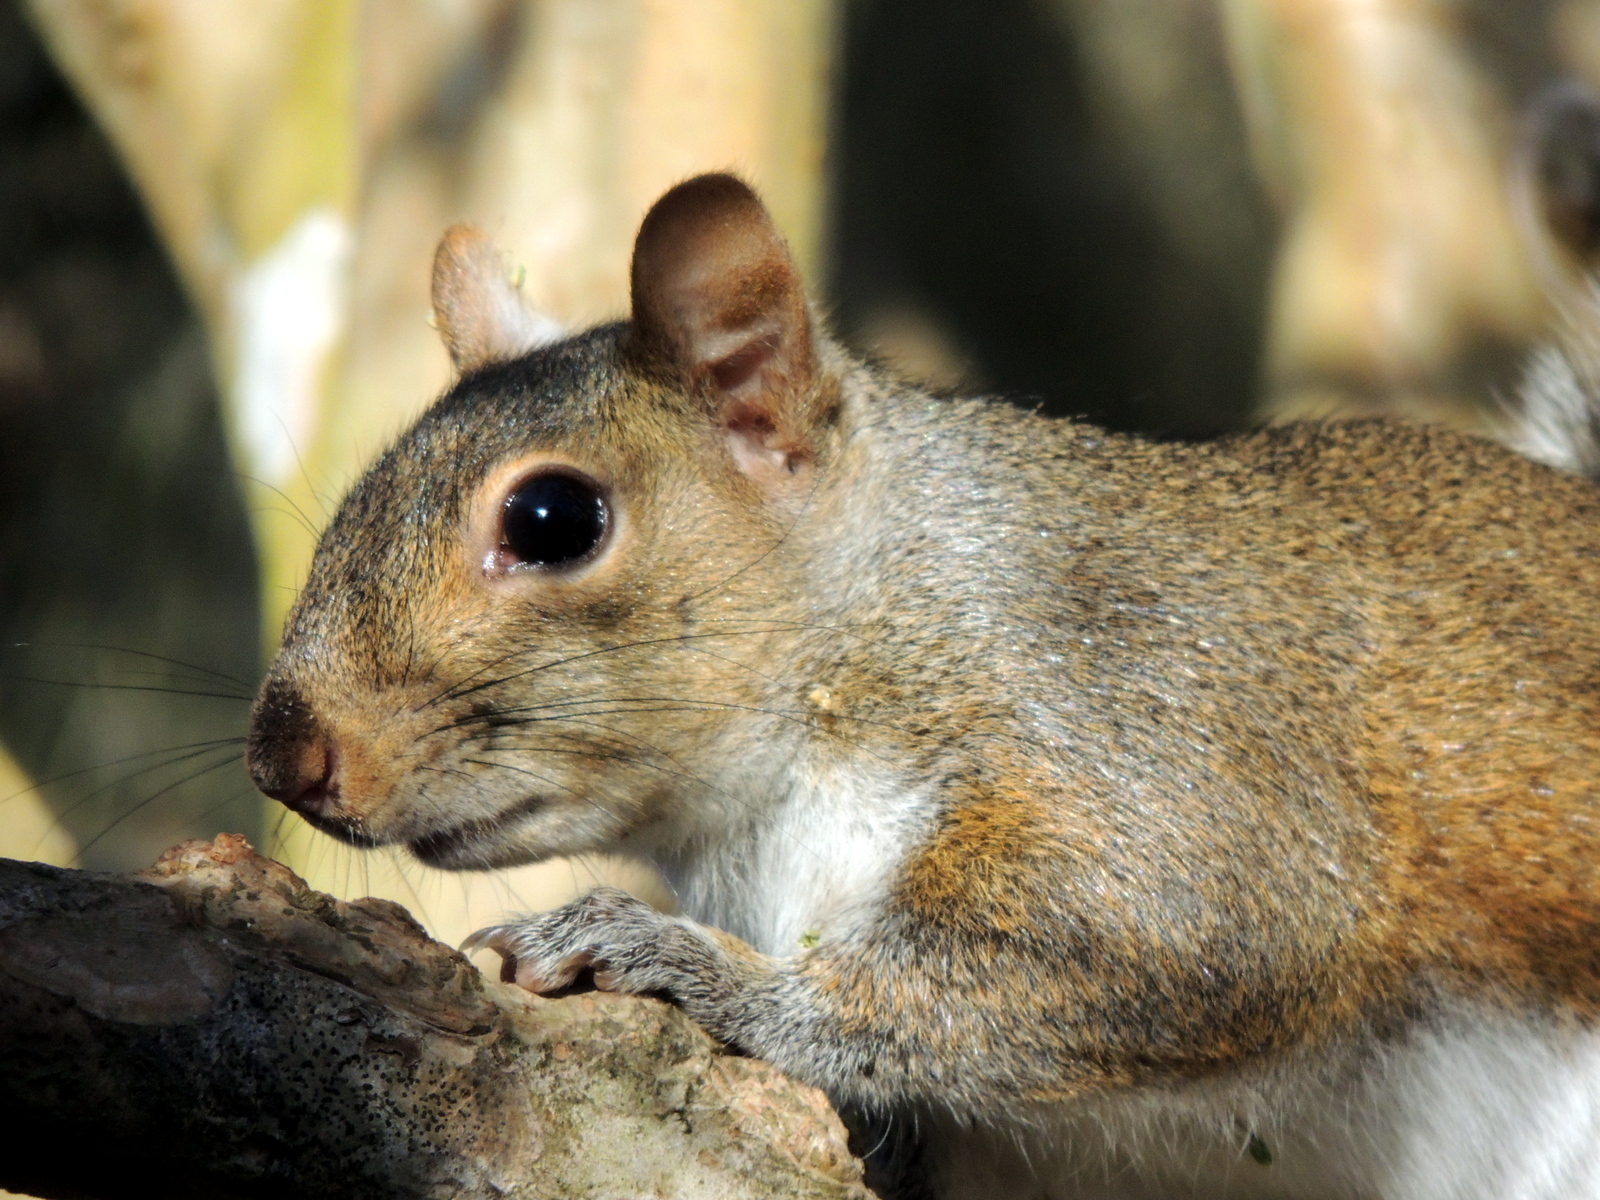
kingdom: Animalia
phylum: Chordata
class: Mammalia
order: Rodentia
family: Sciuridae
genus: Sciurus
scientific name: Sciurus carolinensis
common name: Eastern gray squirrel
